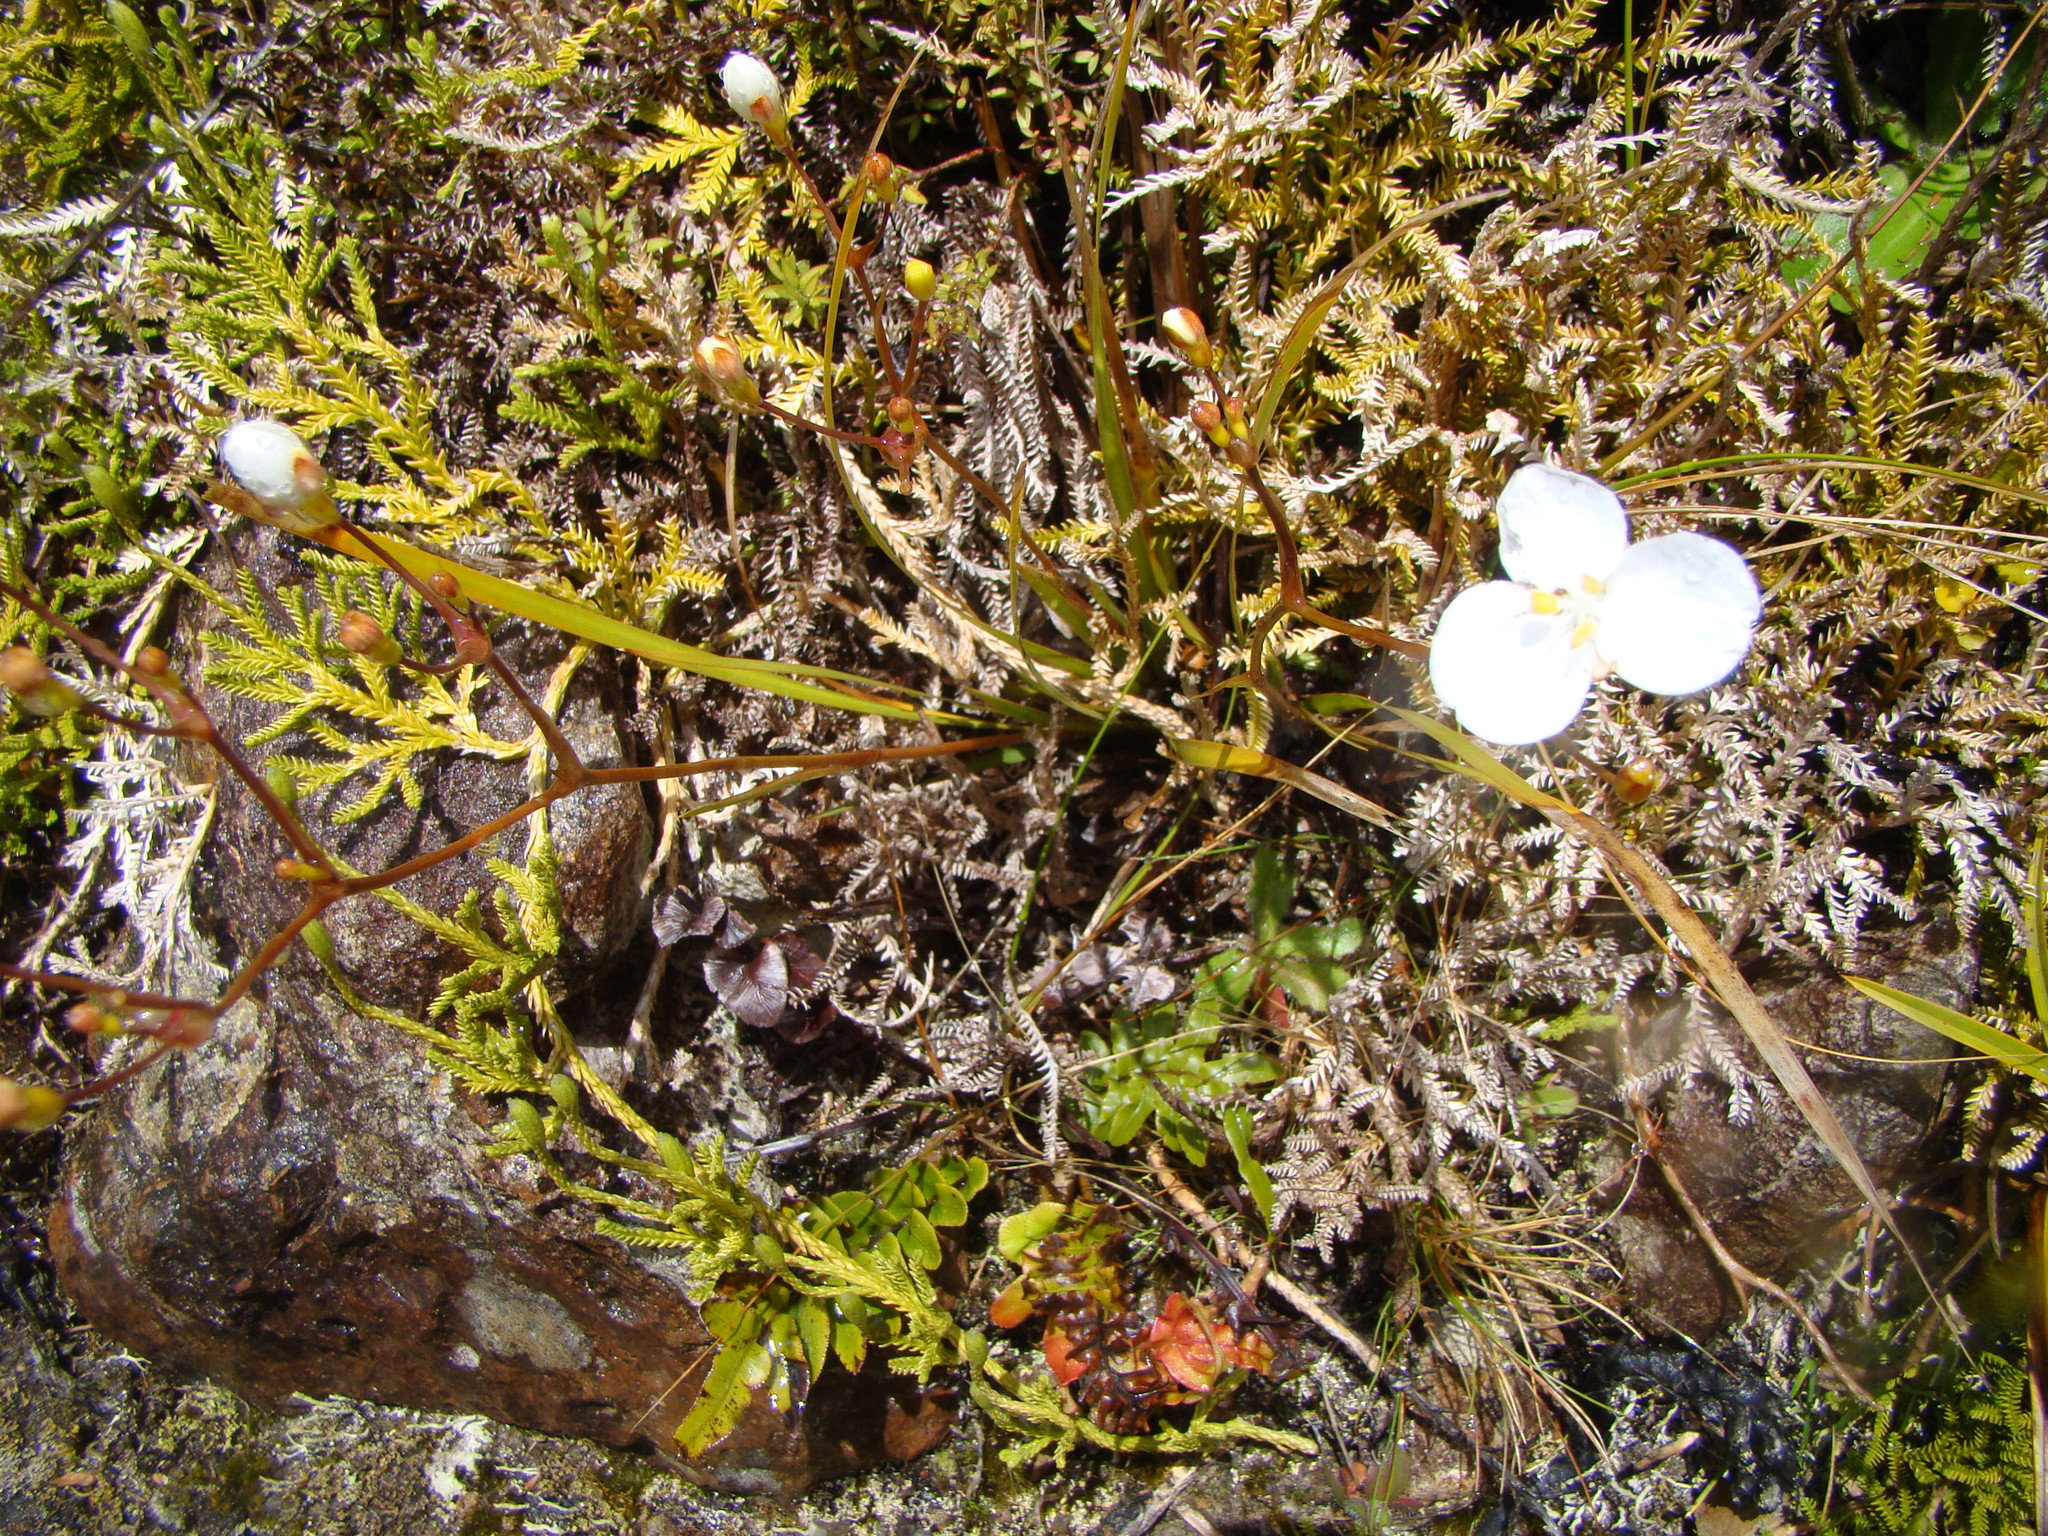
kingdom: Plantae
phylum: Tracheophyta
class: Liliopsida
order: Asparagales
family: Iridaceae
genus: Libertia
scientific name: Libertia ixioides
